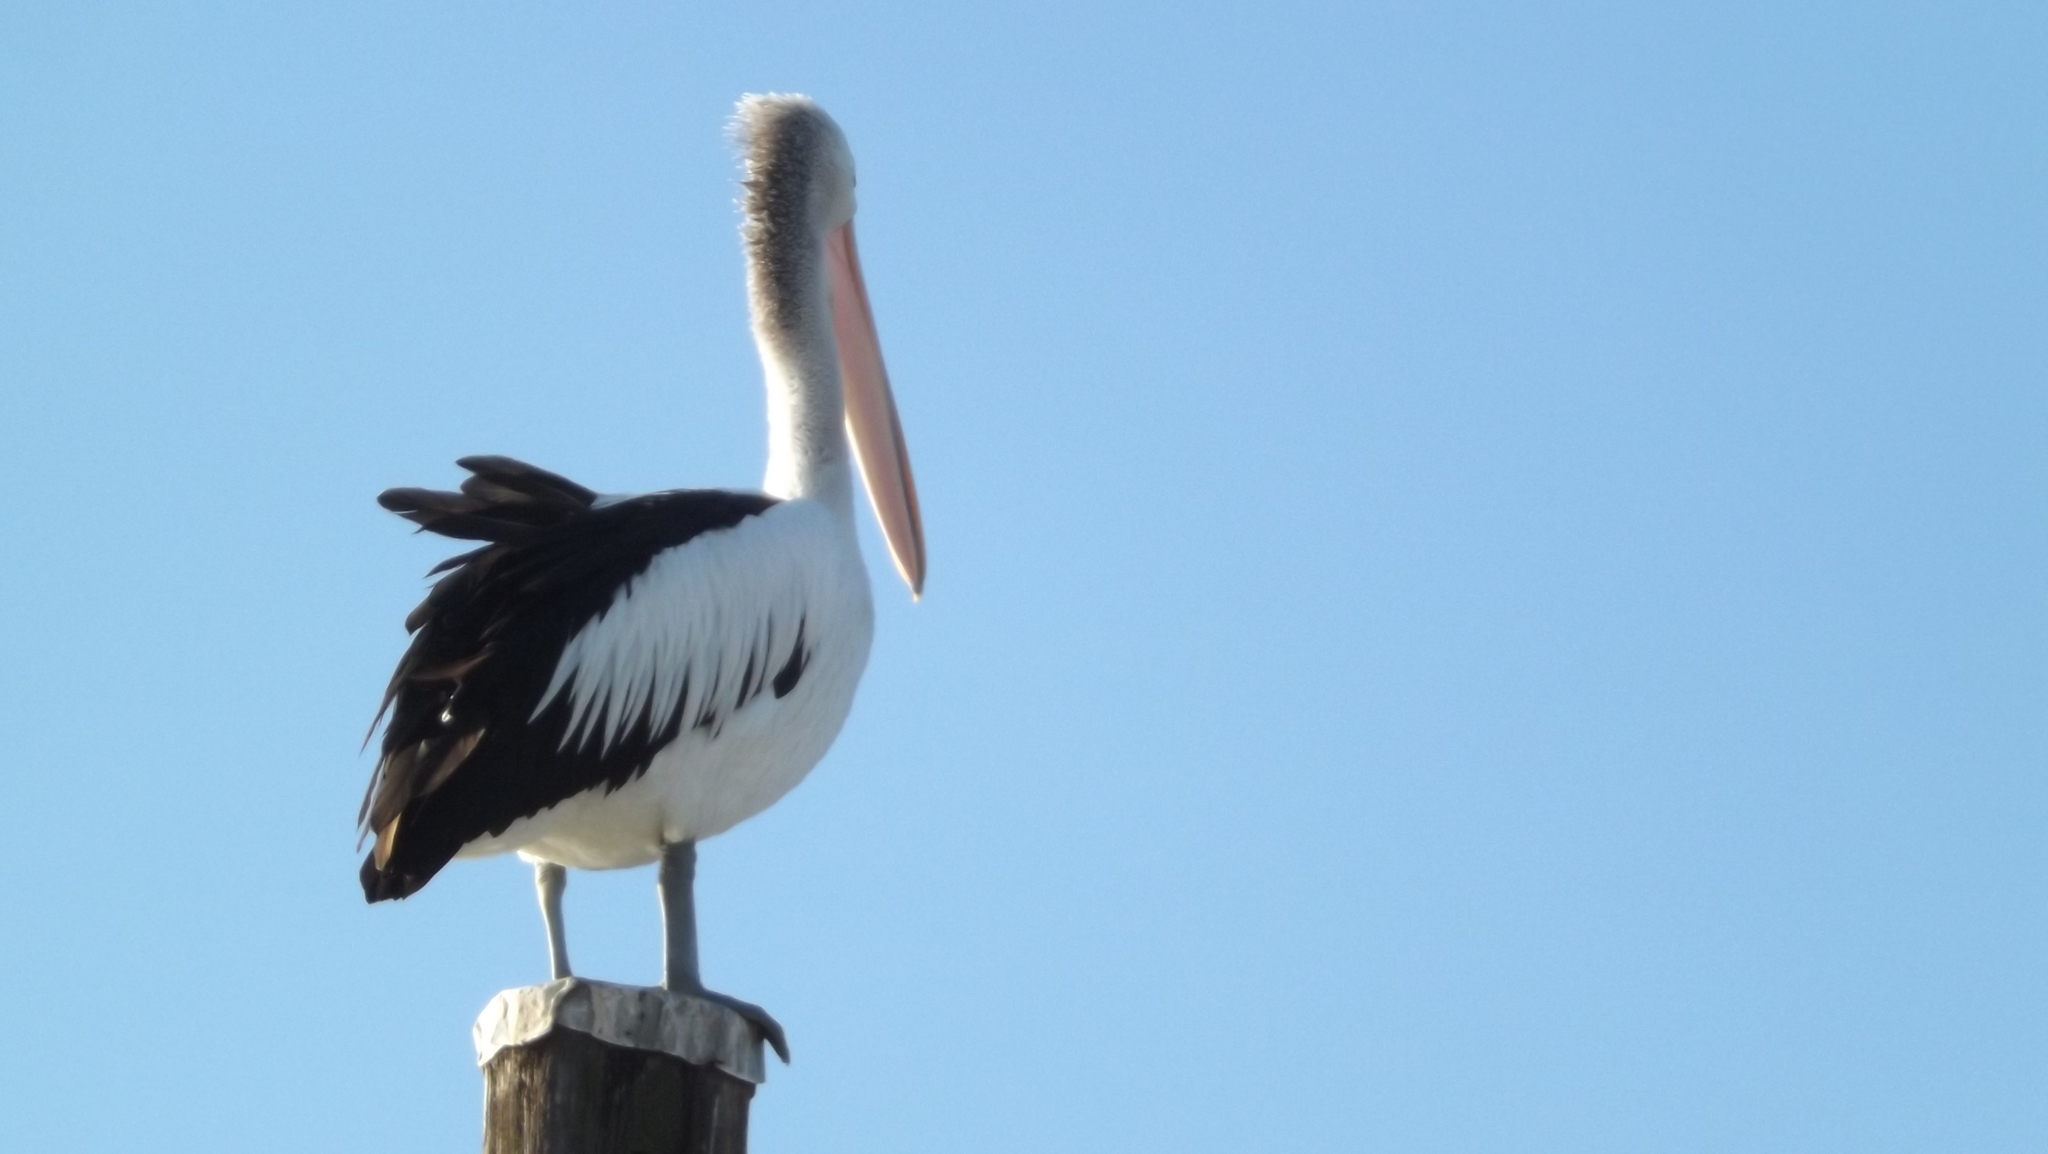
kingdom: Animalia
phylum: Chordata
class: Aves
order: Pelecaniformes
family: Pelecanidae
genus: Pelecanus
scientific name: Pelecanus conspicillatus
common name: Australian pelican
